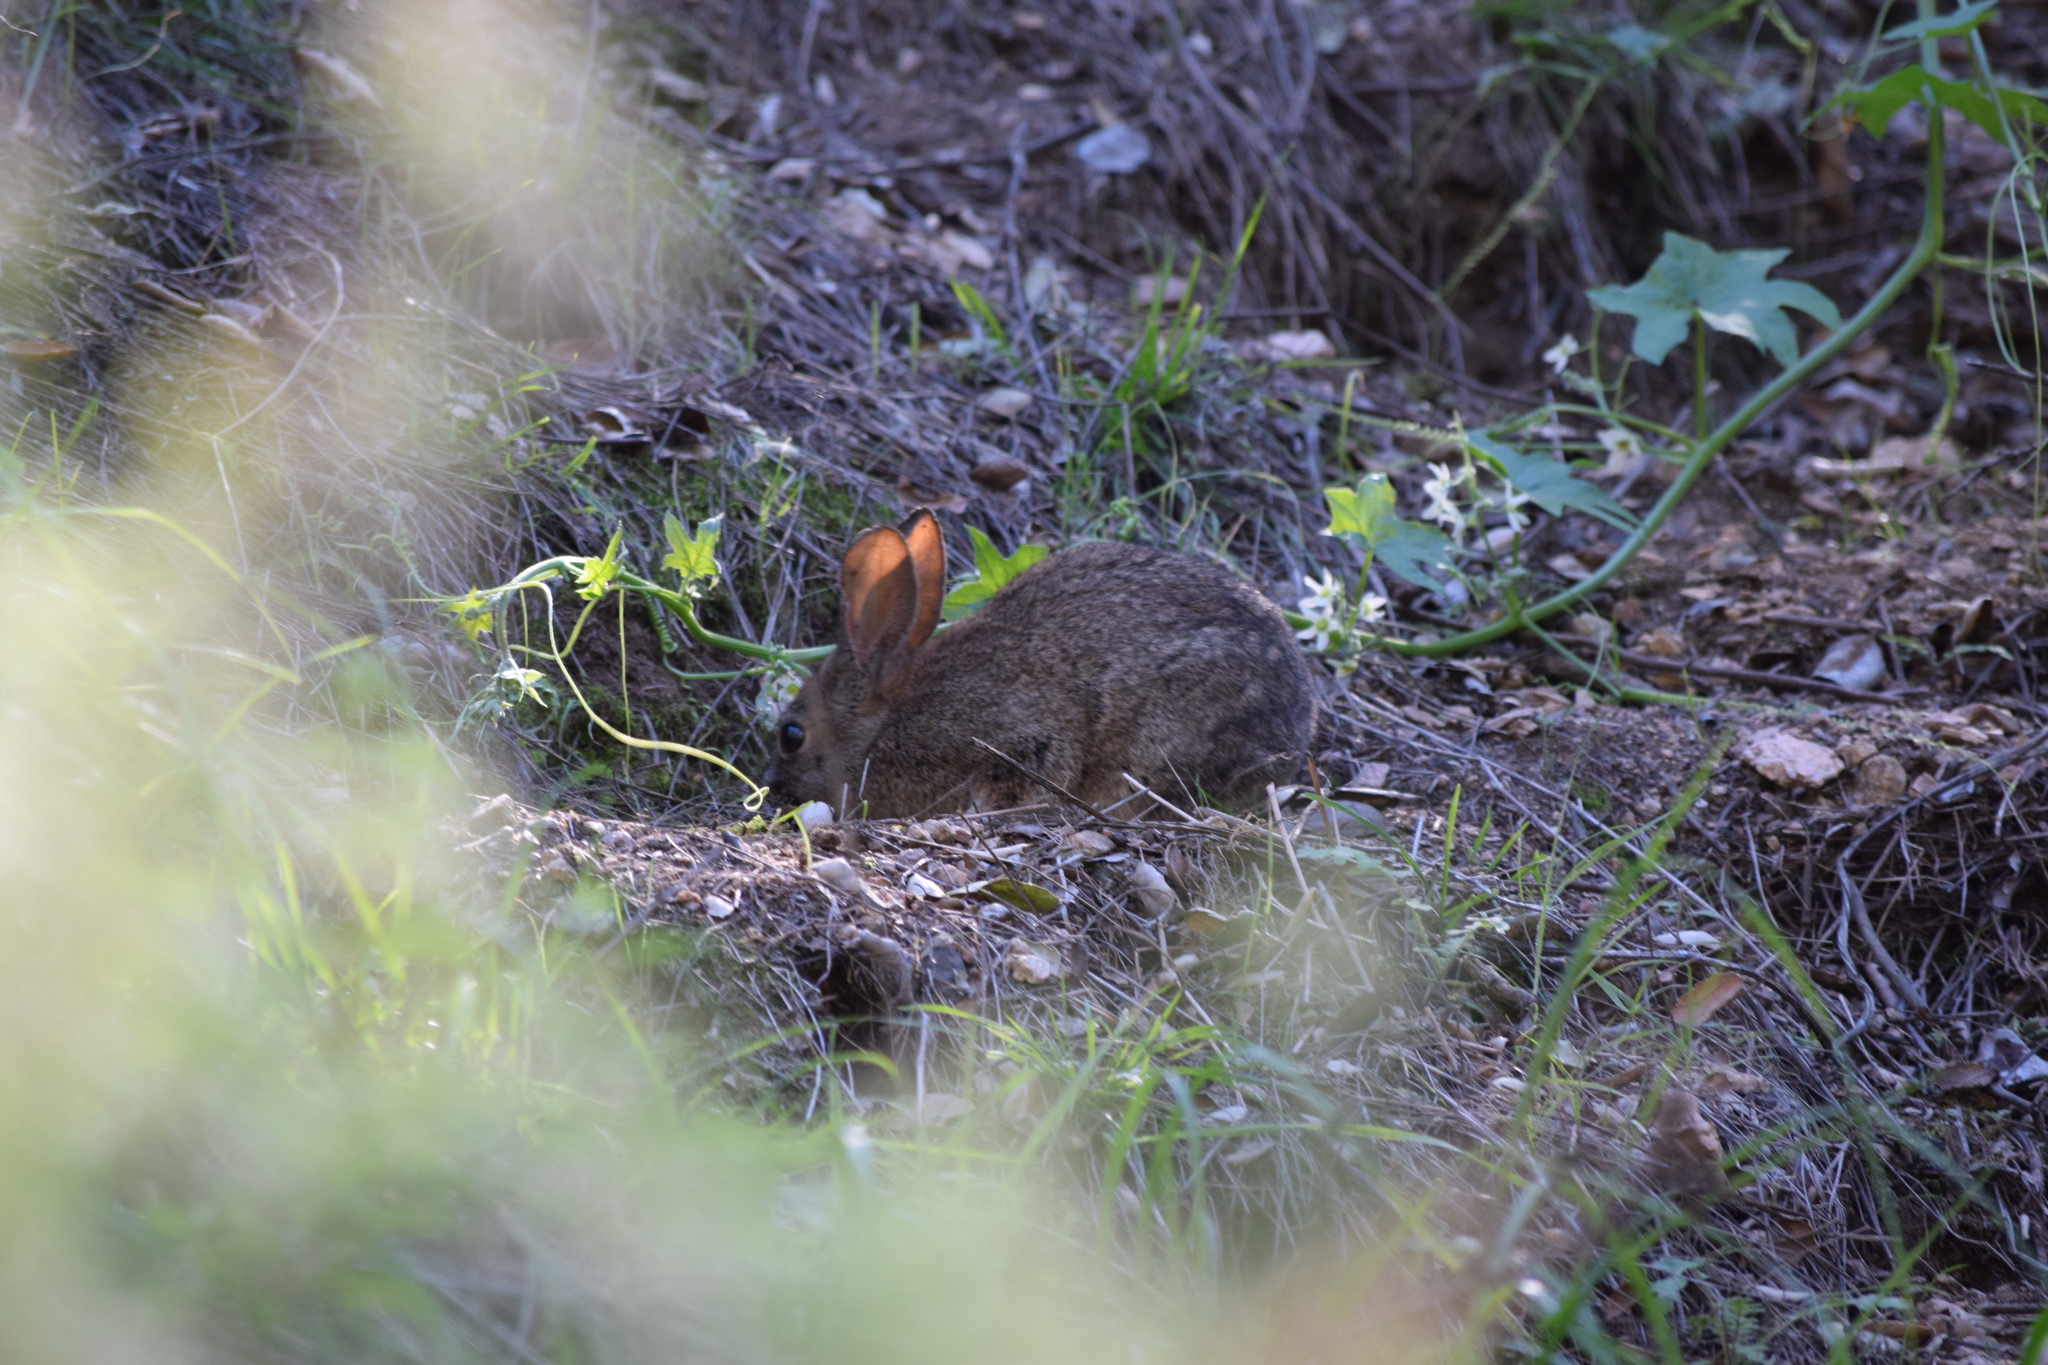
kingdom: Animalia
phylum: Chordata
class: Mammalia
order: Lagomorpha
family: Leporidae
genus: Sylvilagus
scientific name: Sylvilagus bachmani
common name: Brush rabbit
